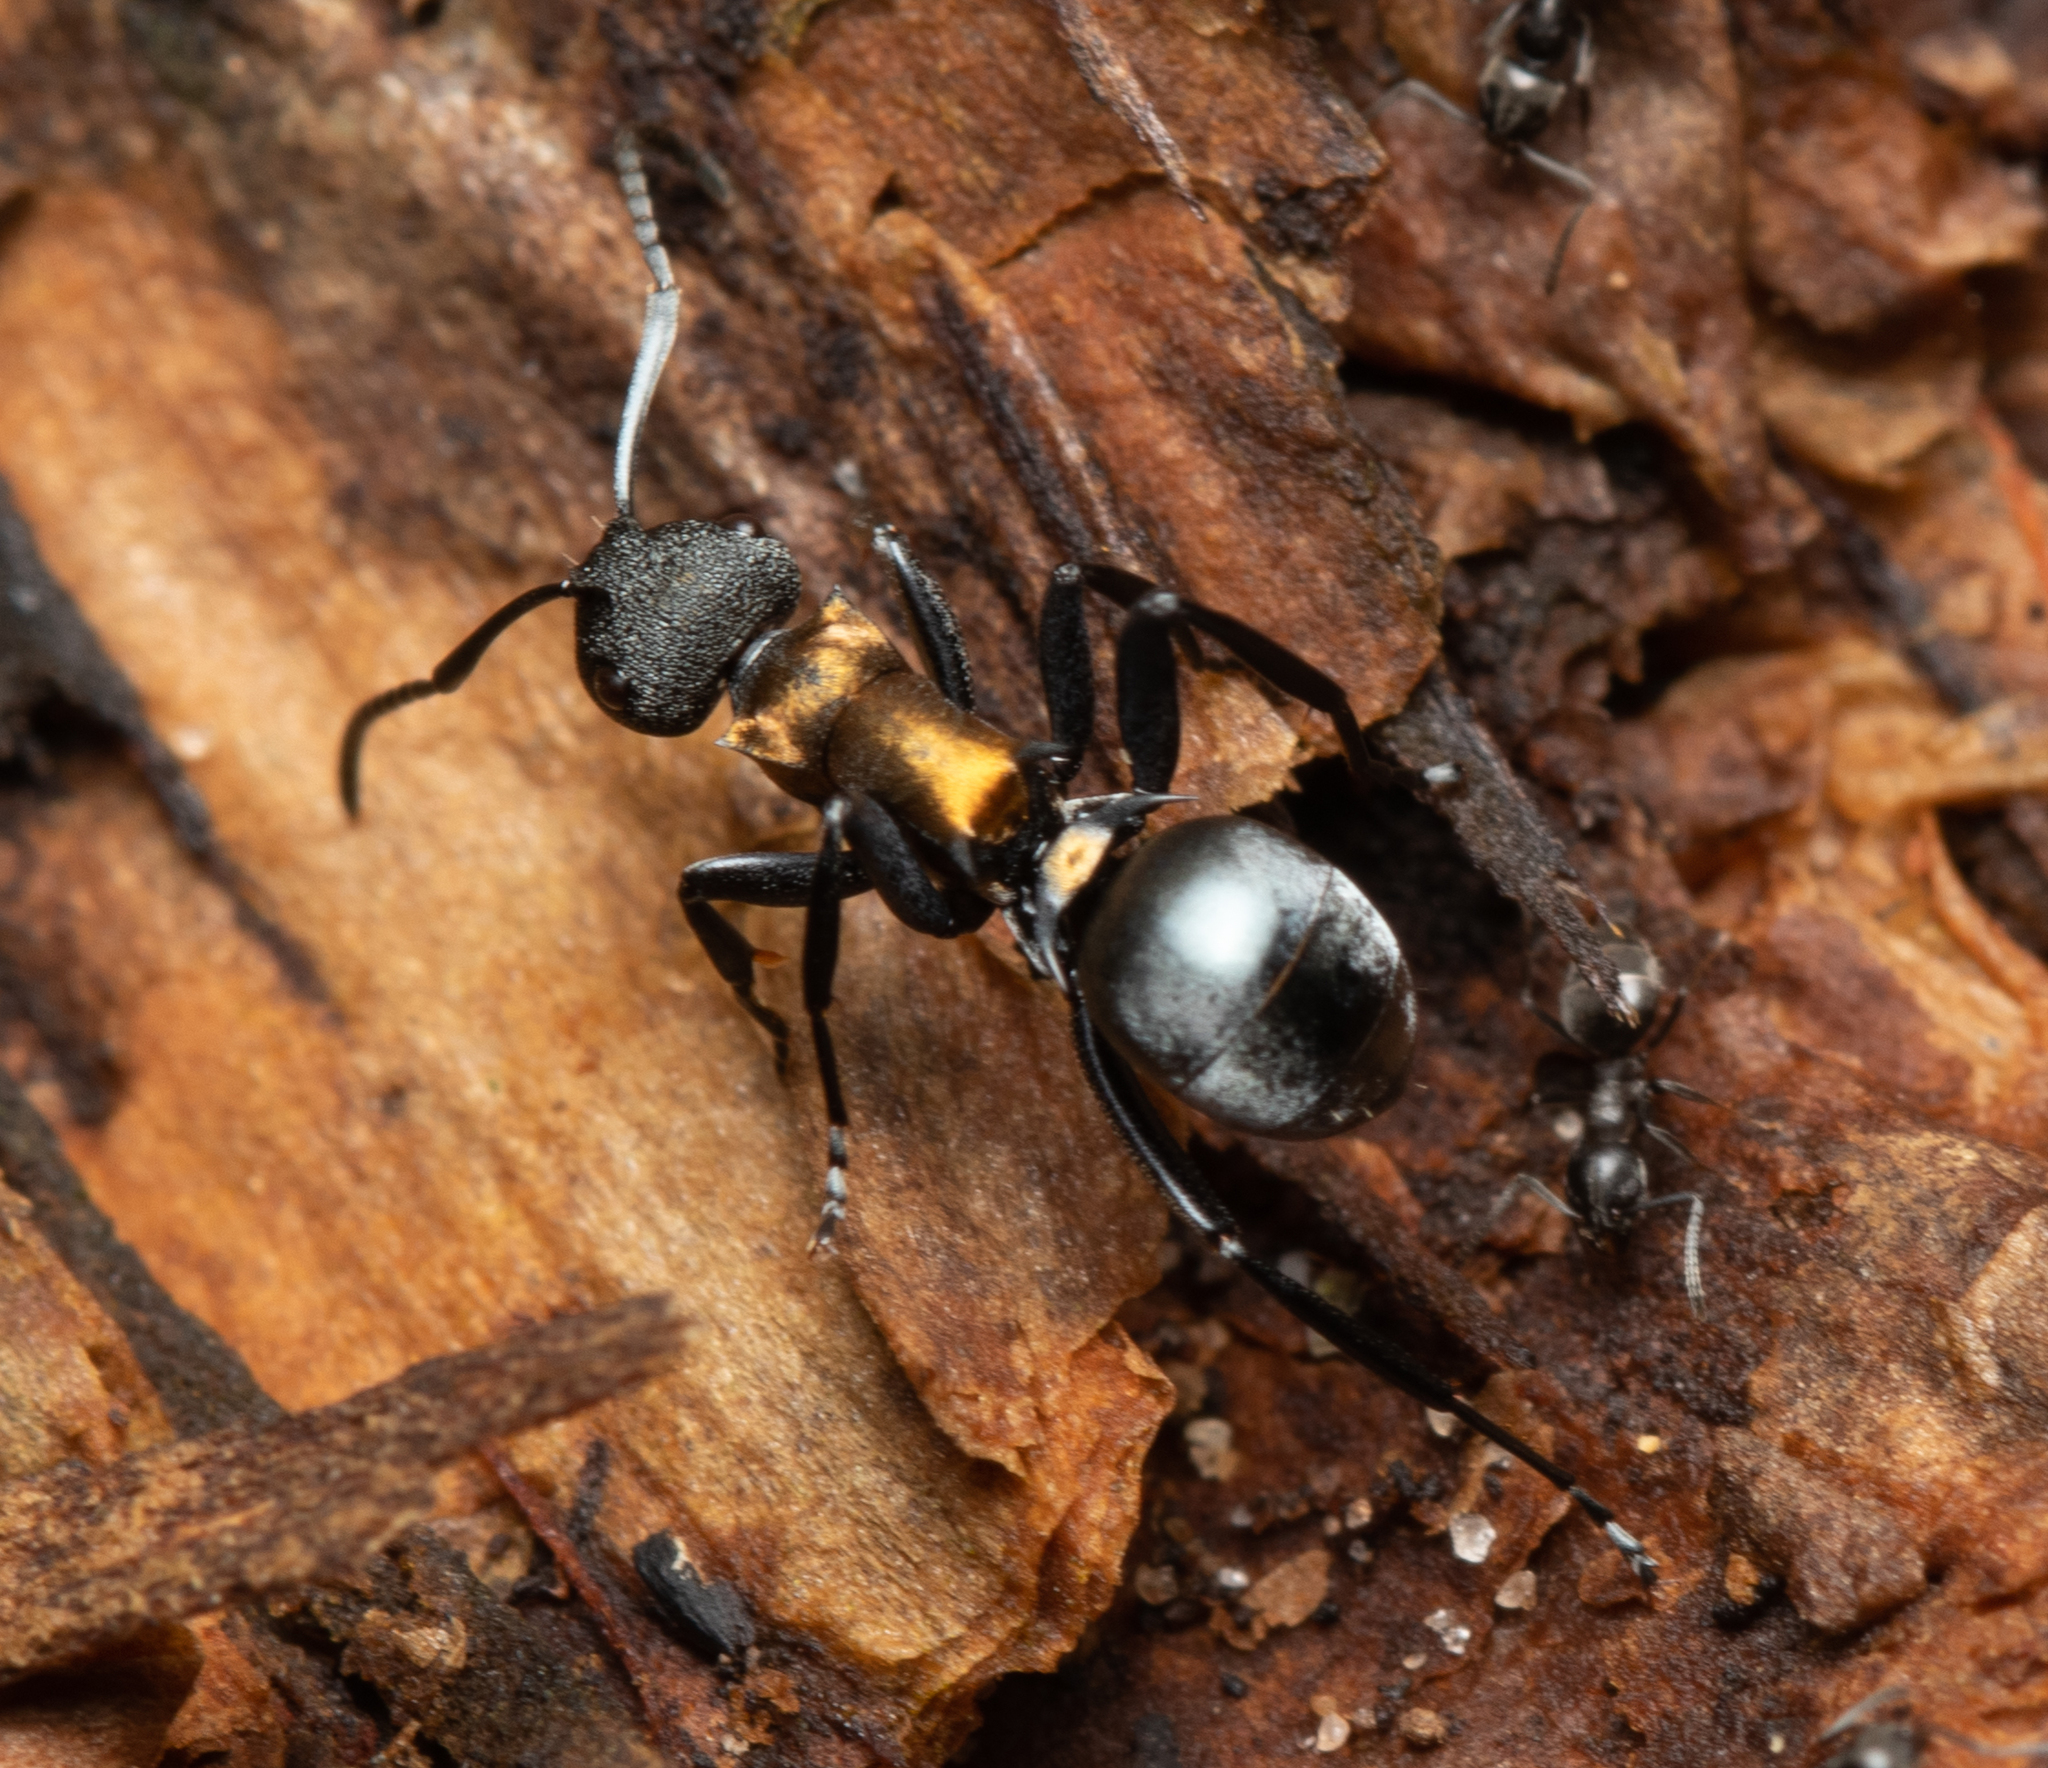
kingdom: Animalia
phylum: Arthropoda
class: Insecta
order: Hymenoptera
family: Formicidae
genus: Polyrhachis
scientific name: Polyrhachis ornata
